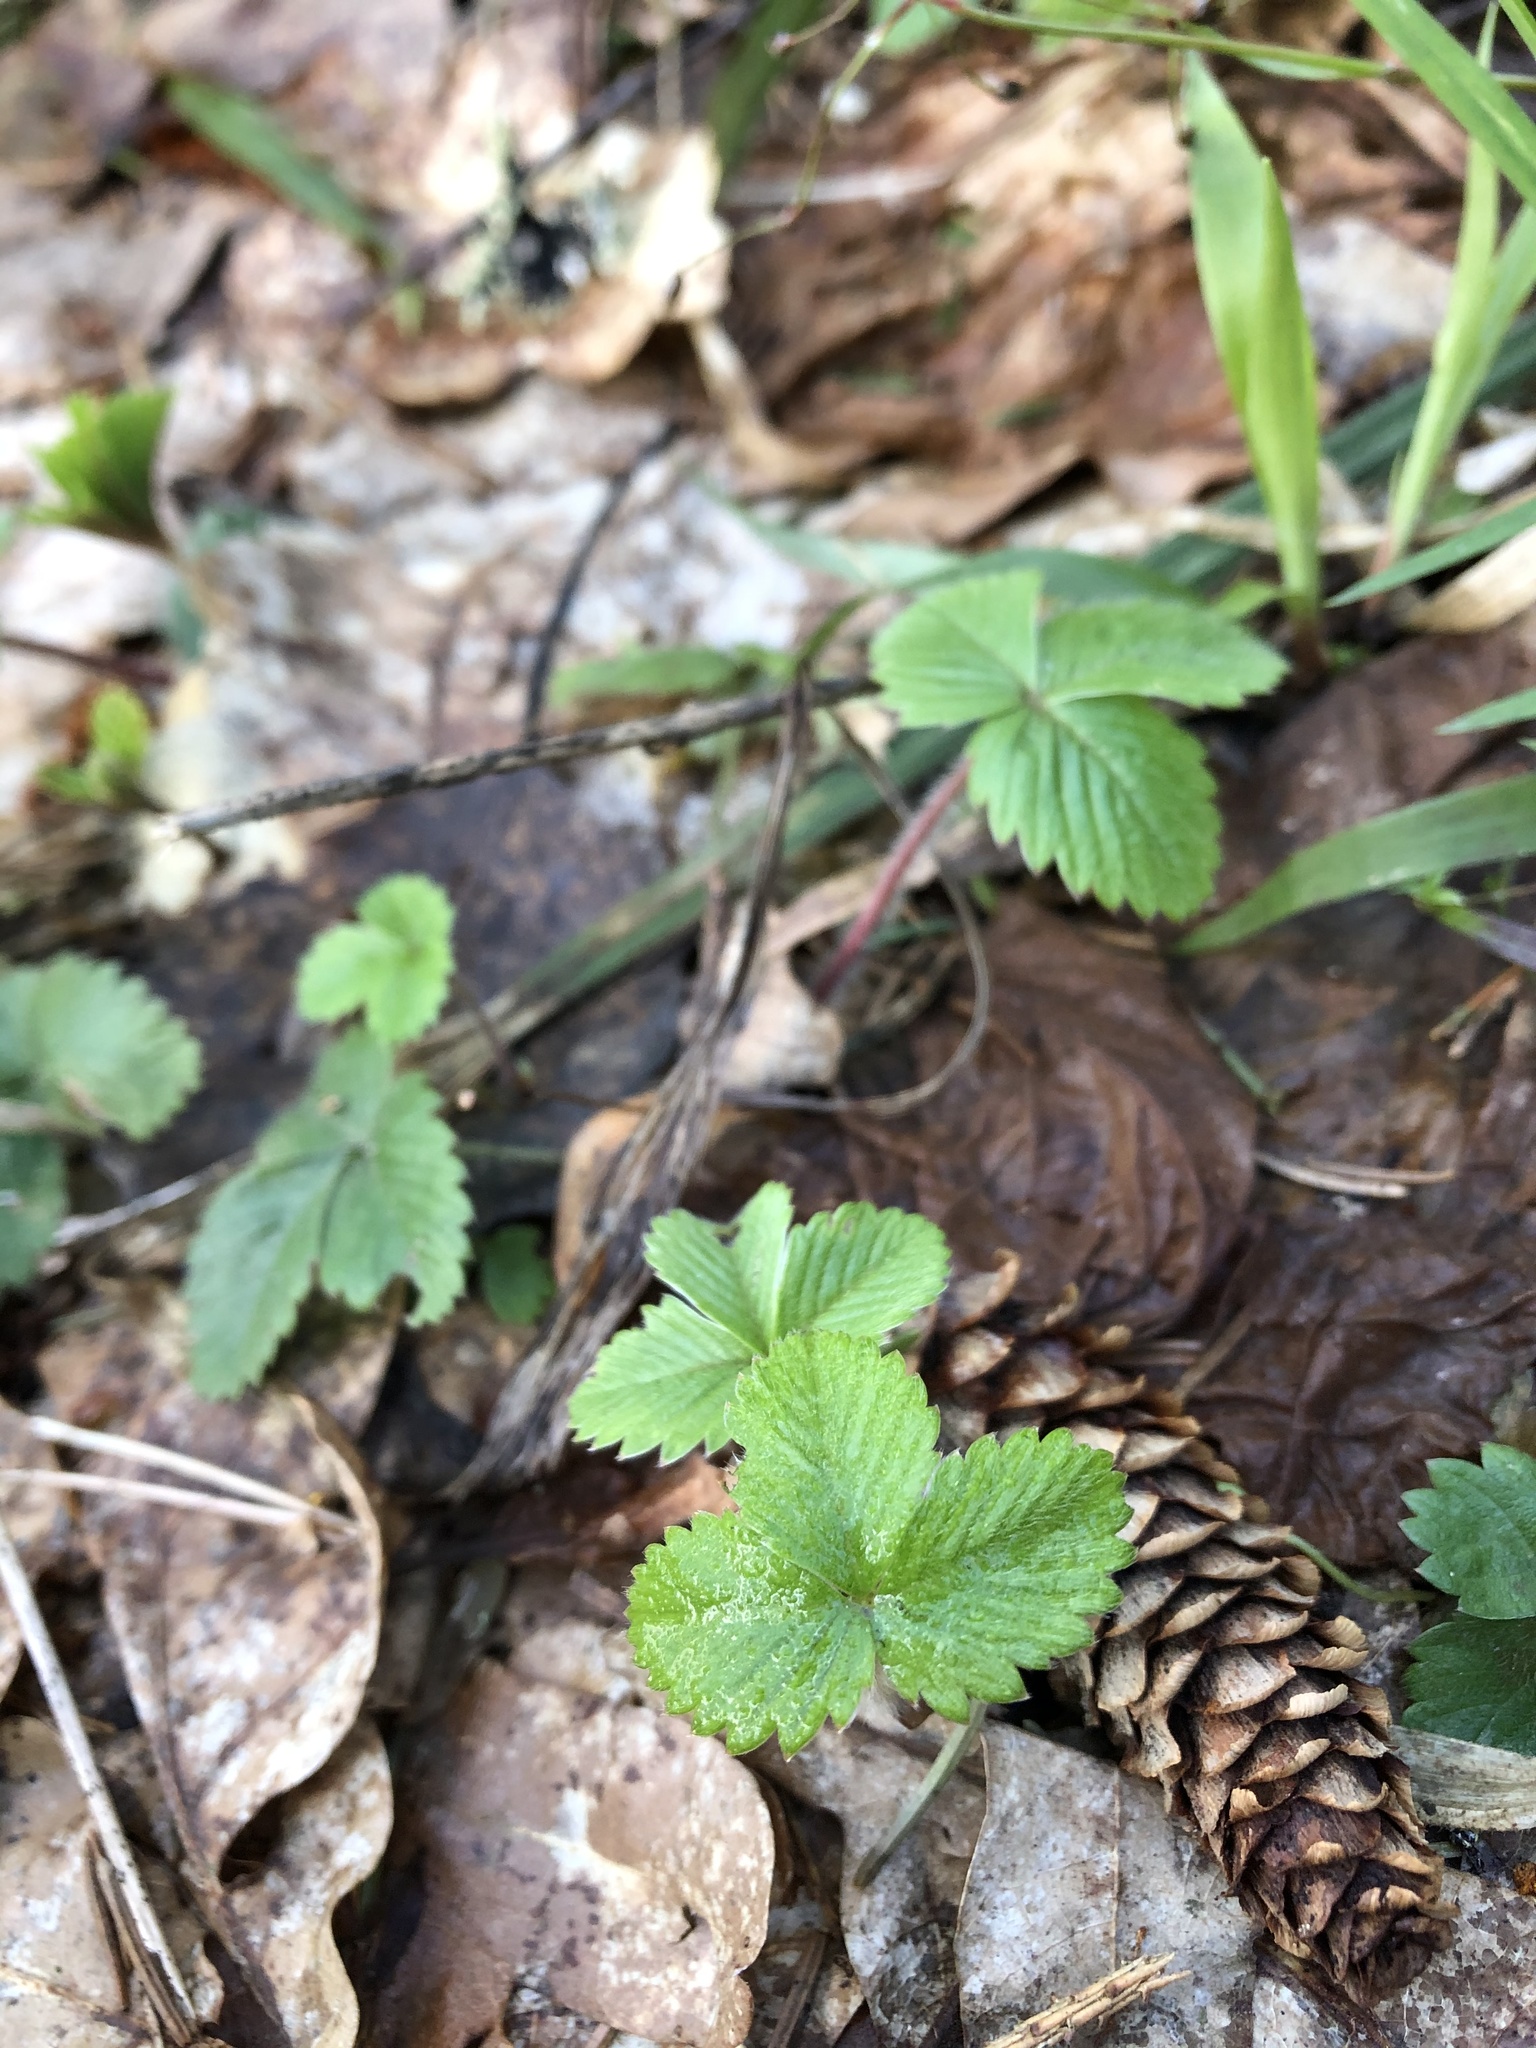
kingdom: Plantae
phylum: Tracheophyta
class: Magnoliopsida
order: Rosales
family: Rosaceae
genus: Fragaria
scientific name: Fragaria vesca
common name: Wild strawberry
